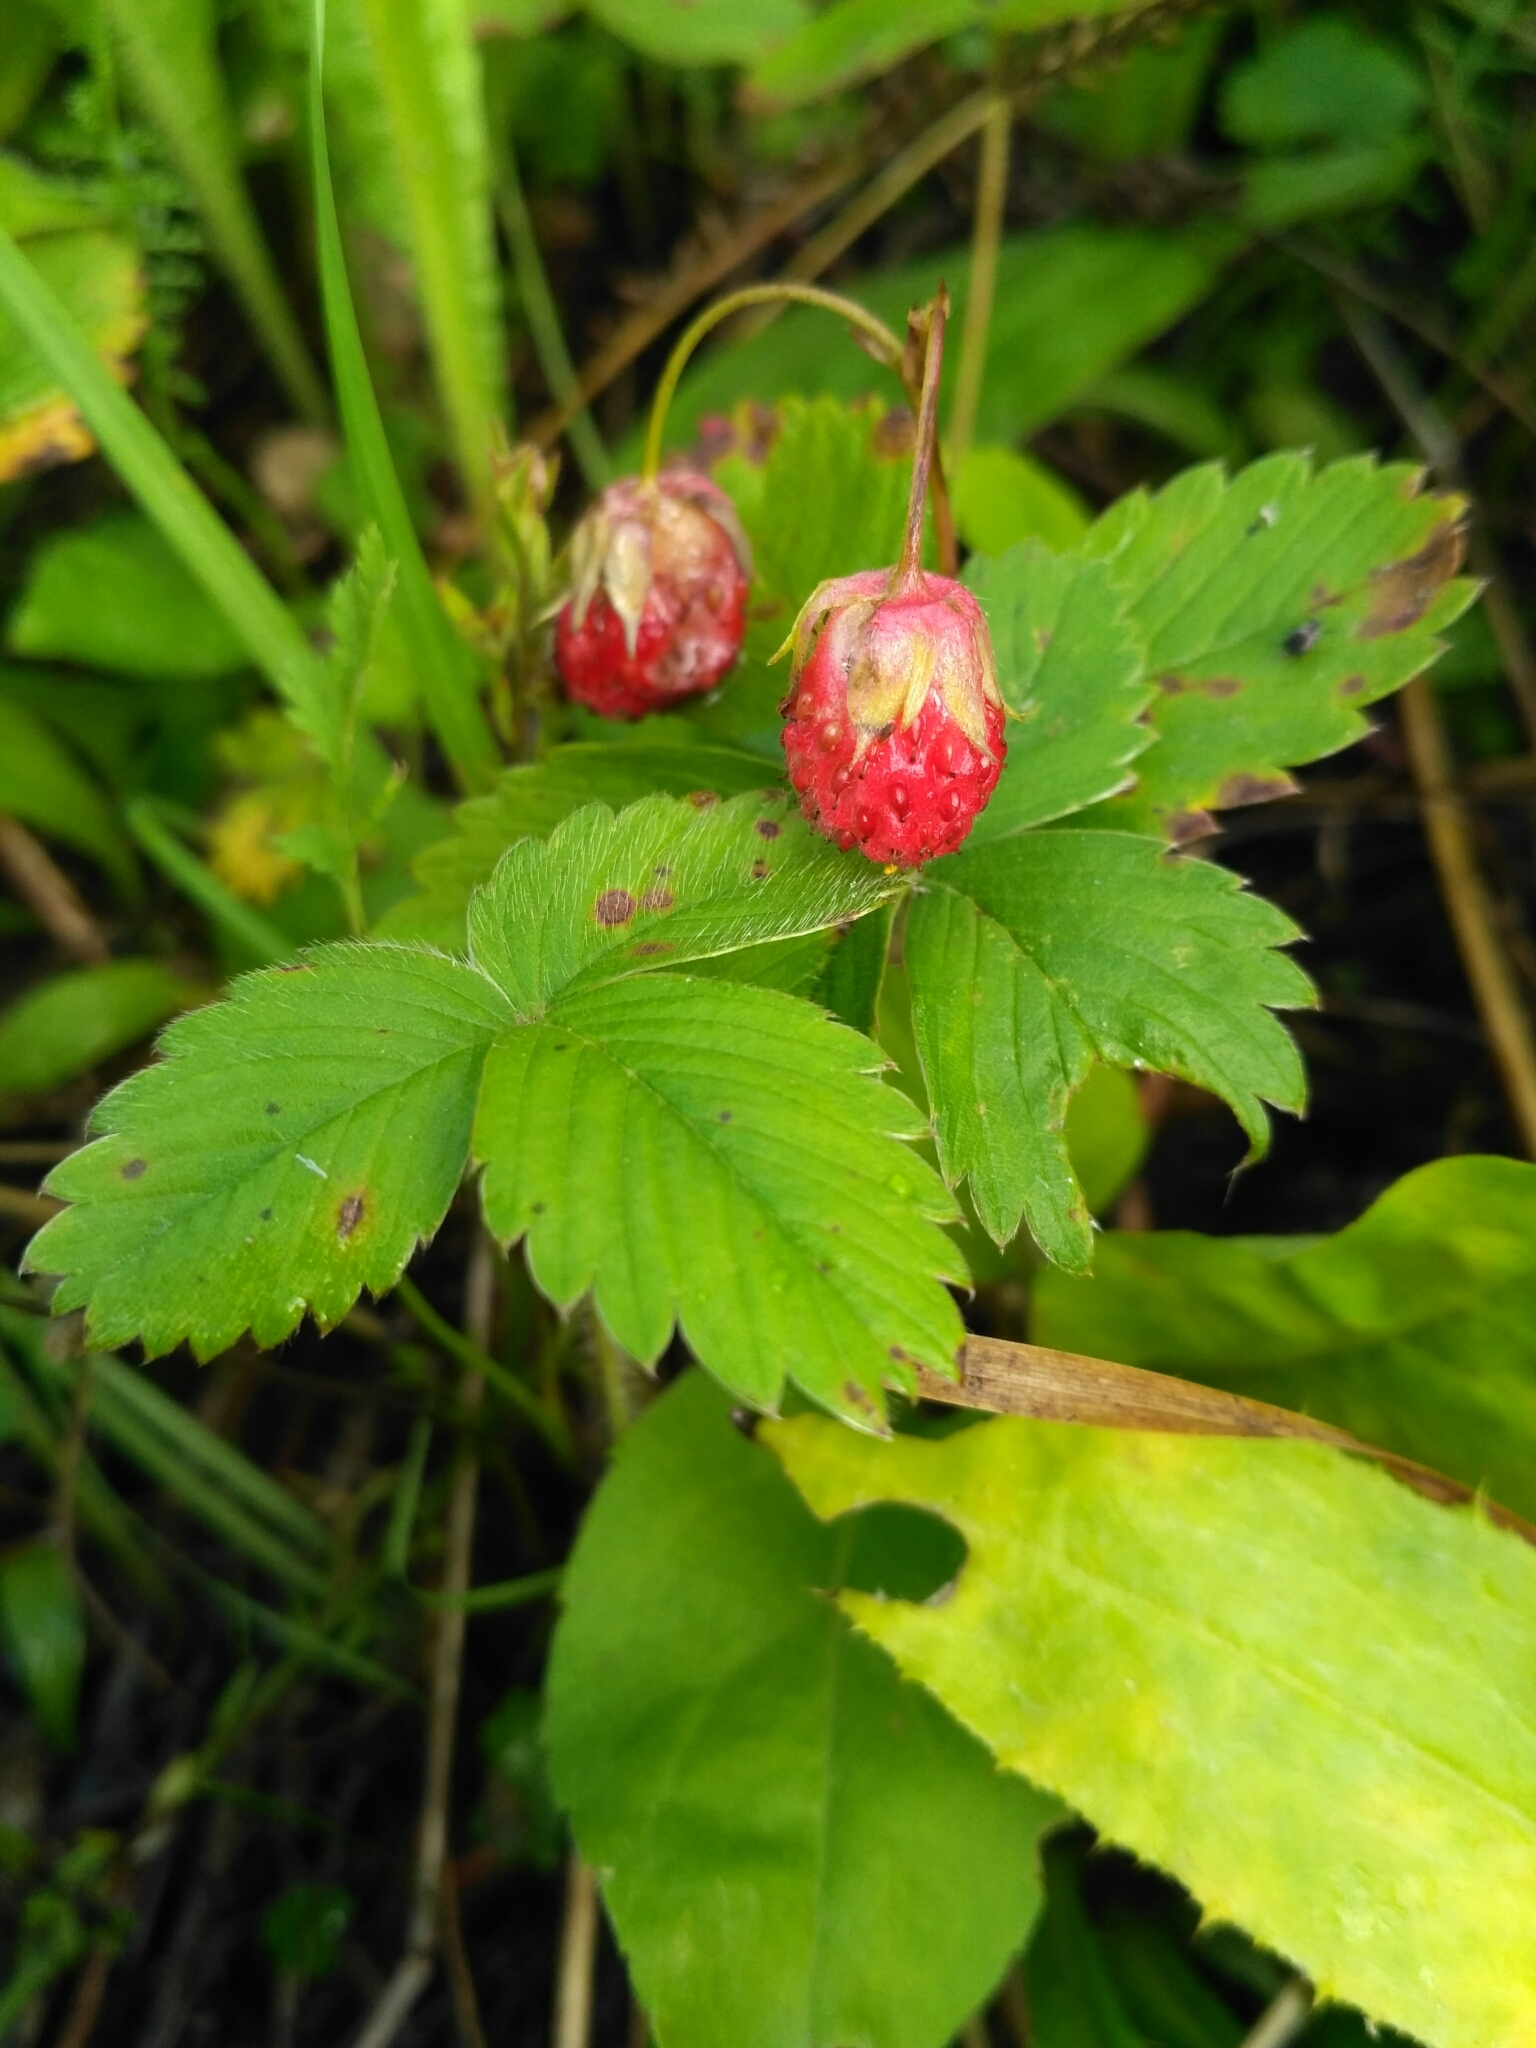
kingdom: Plantae
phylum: Tracheophyta
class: Magnoliopsida
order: Rosales
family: Rosaceae
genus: Fragaria
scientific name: Fragaria viridis
